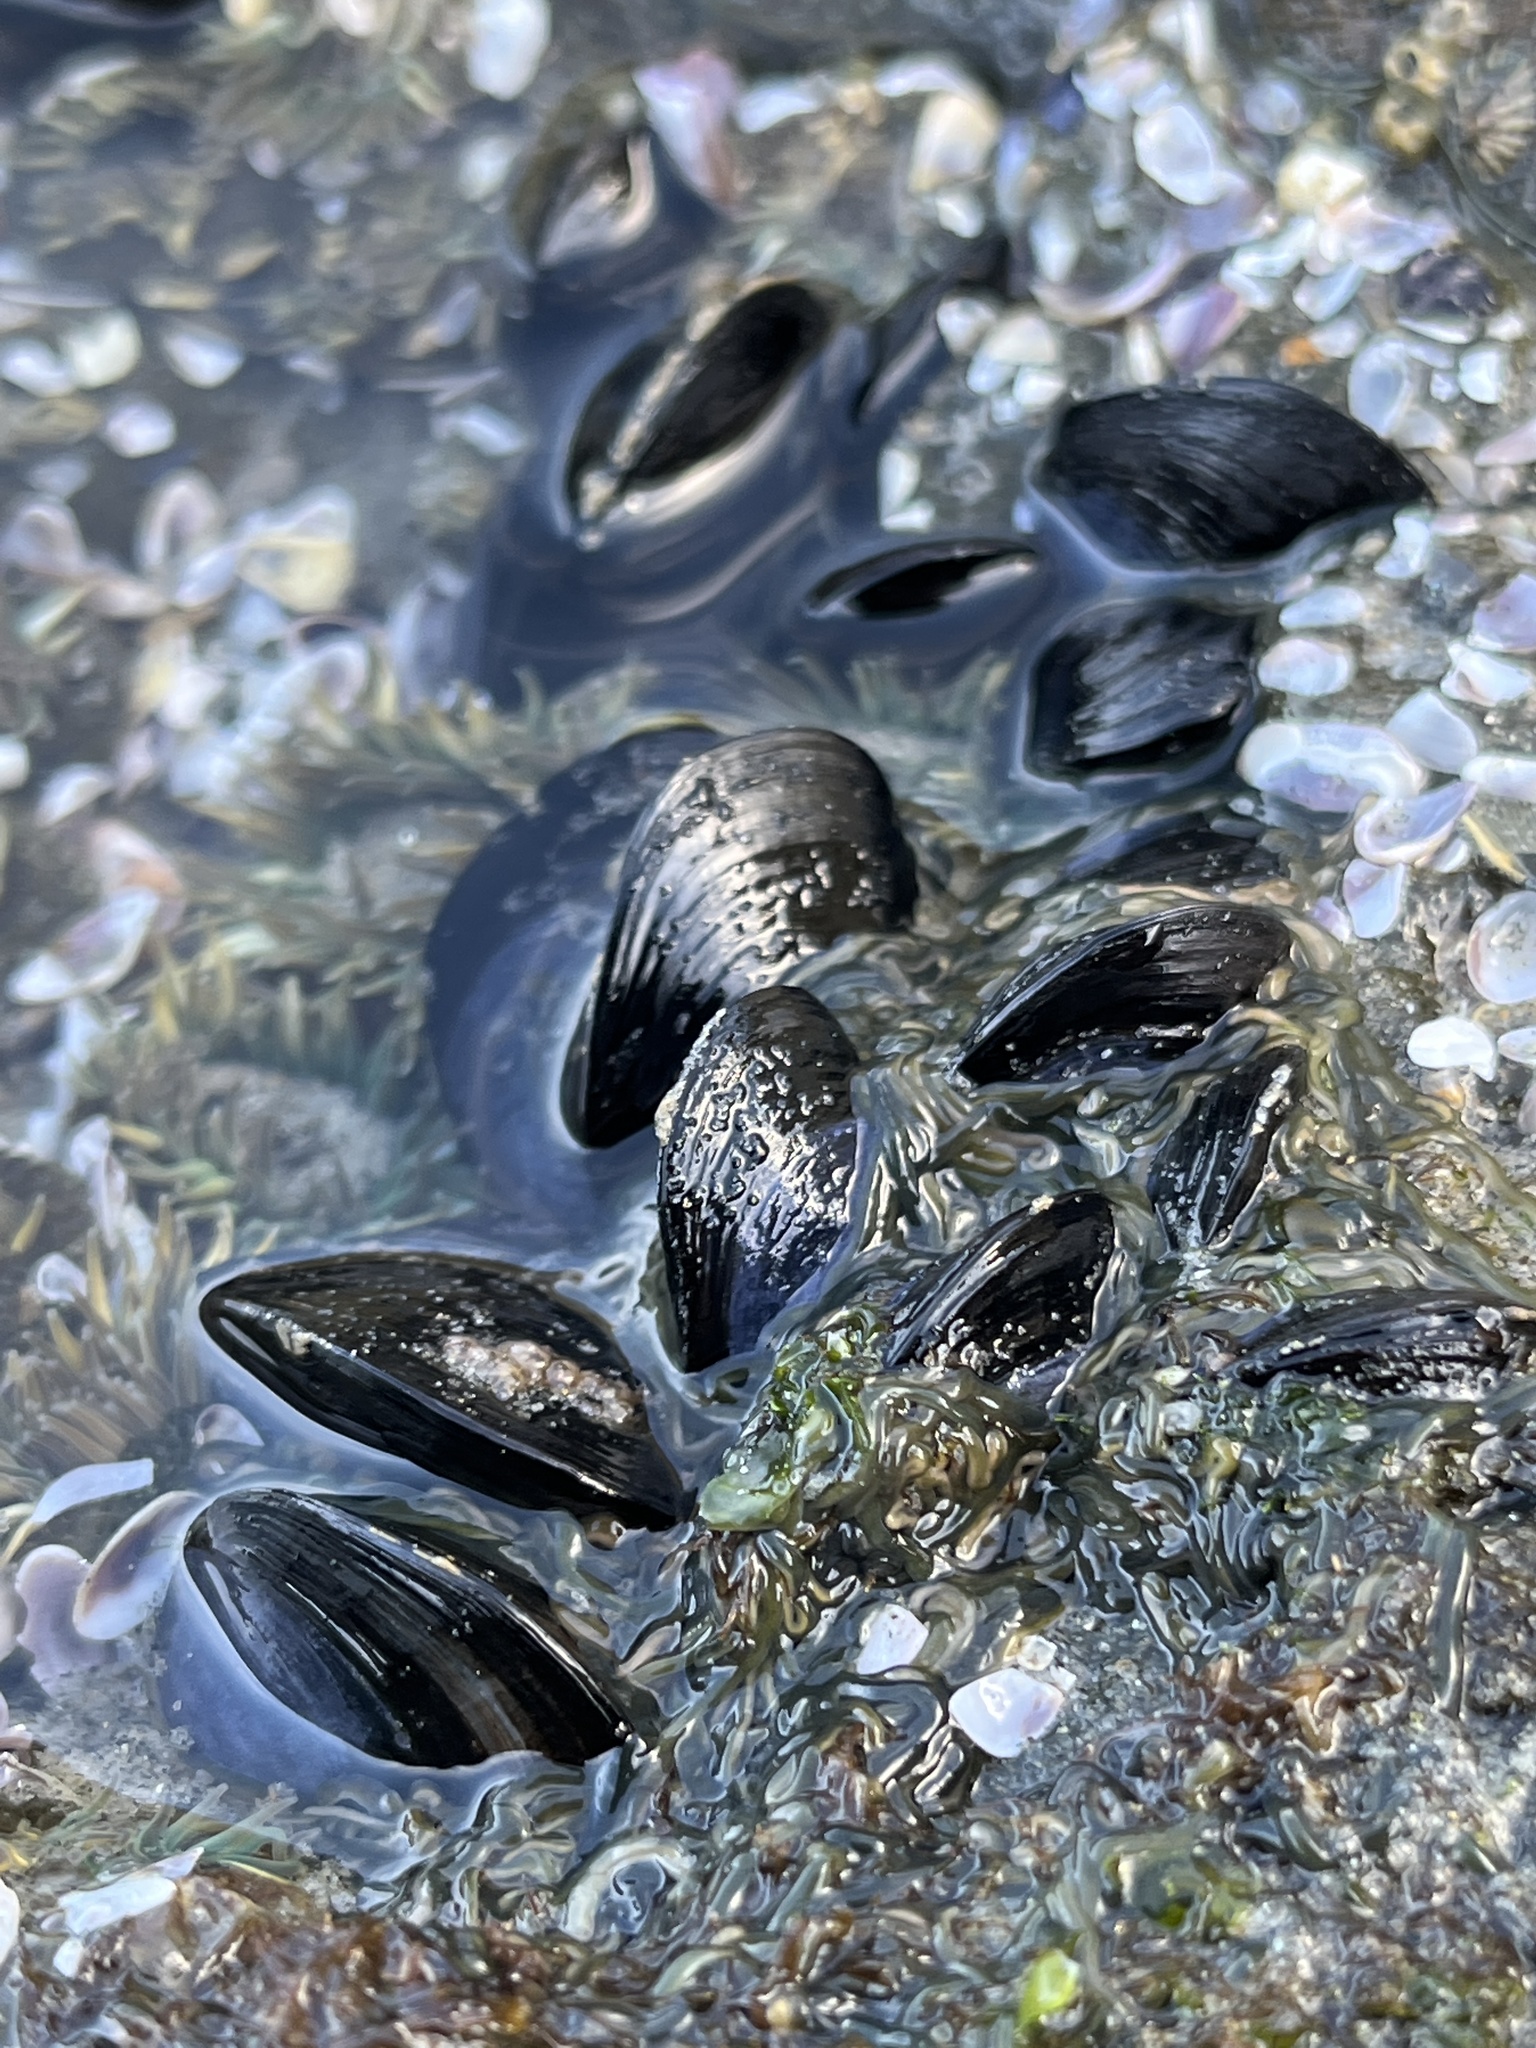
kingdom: Animalia
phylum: Mollusca
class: Bivalvia
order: Mytilida
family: Mytilidae
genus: Mytilus
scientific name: Mytilus galloprovincialis
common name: Mediterranean mussel
